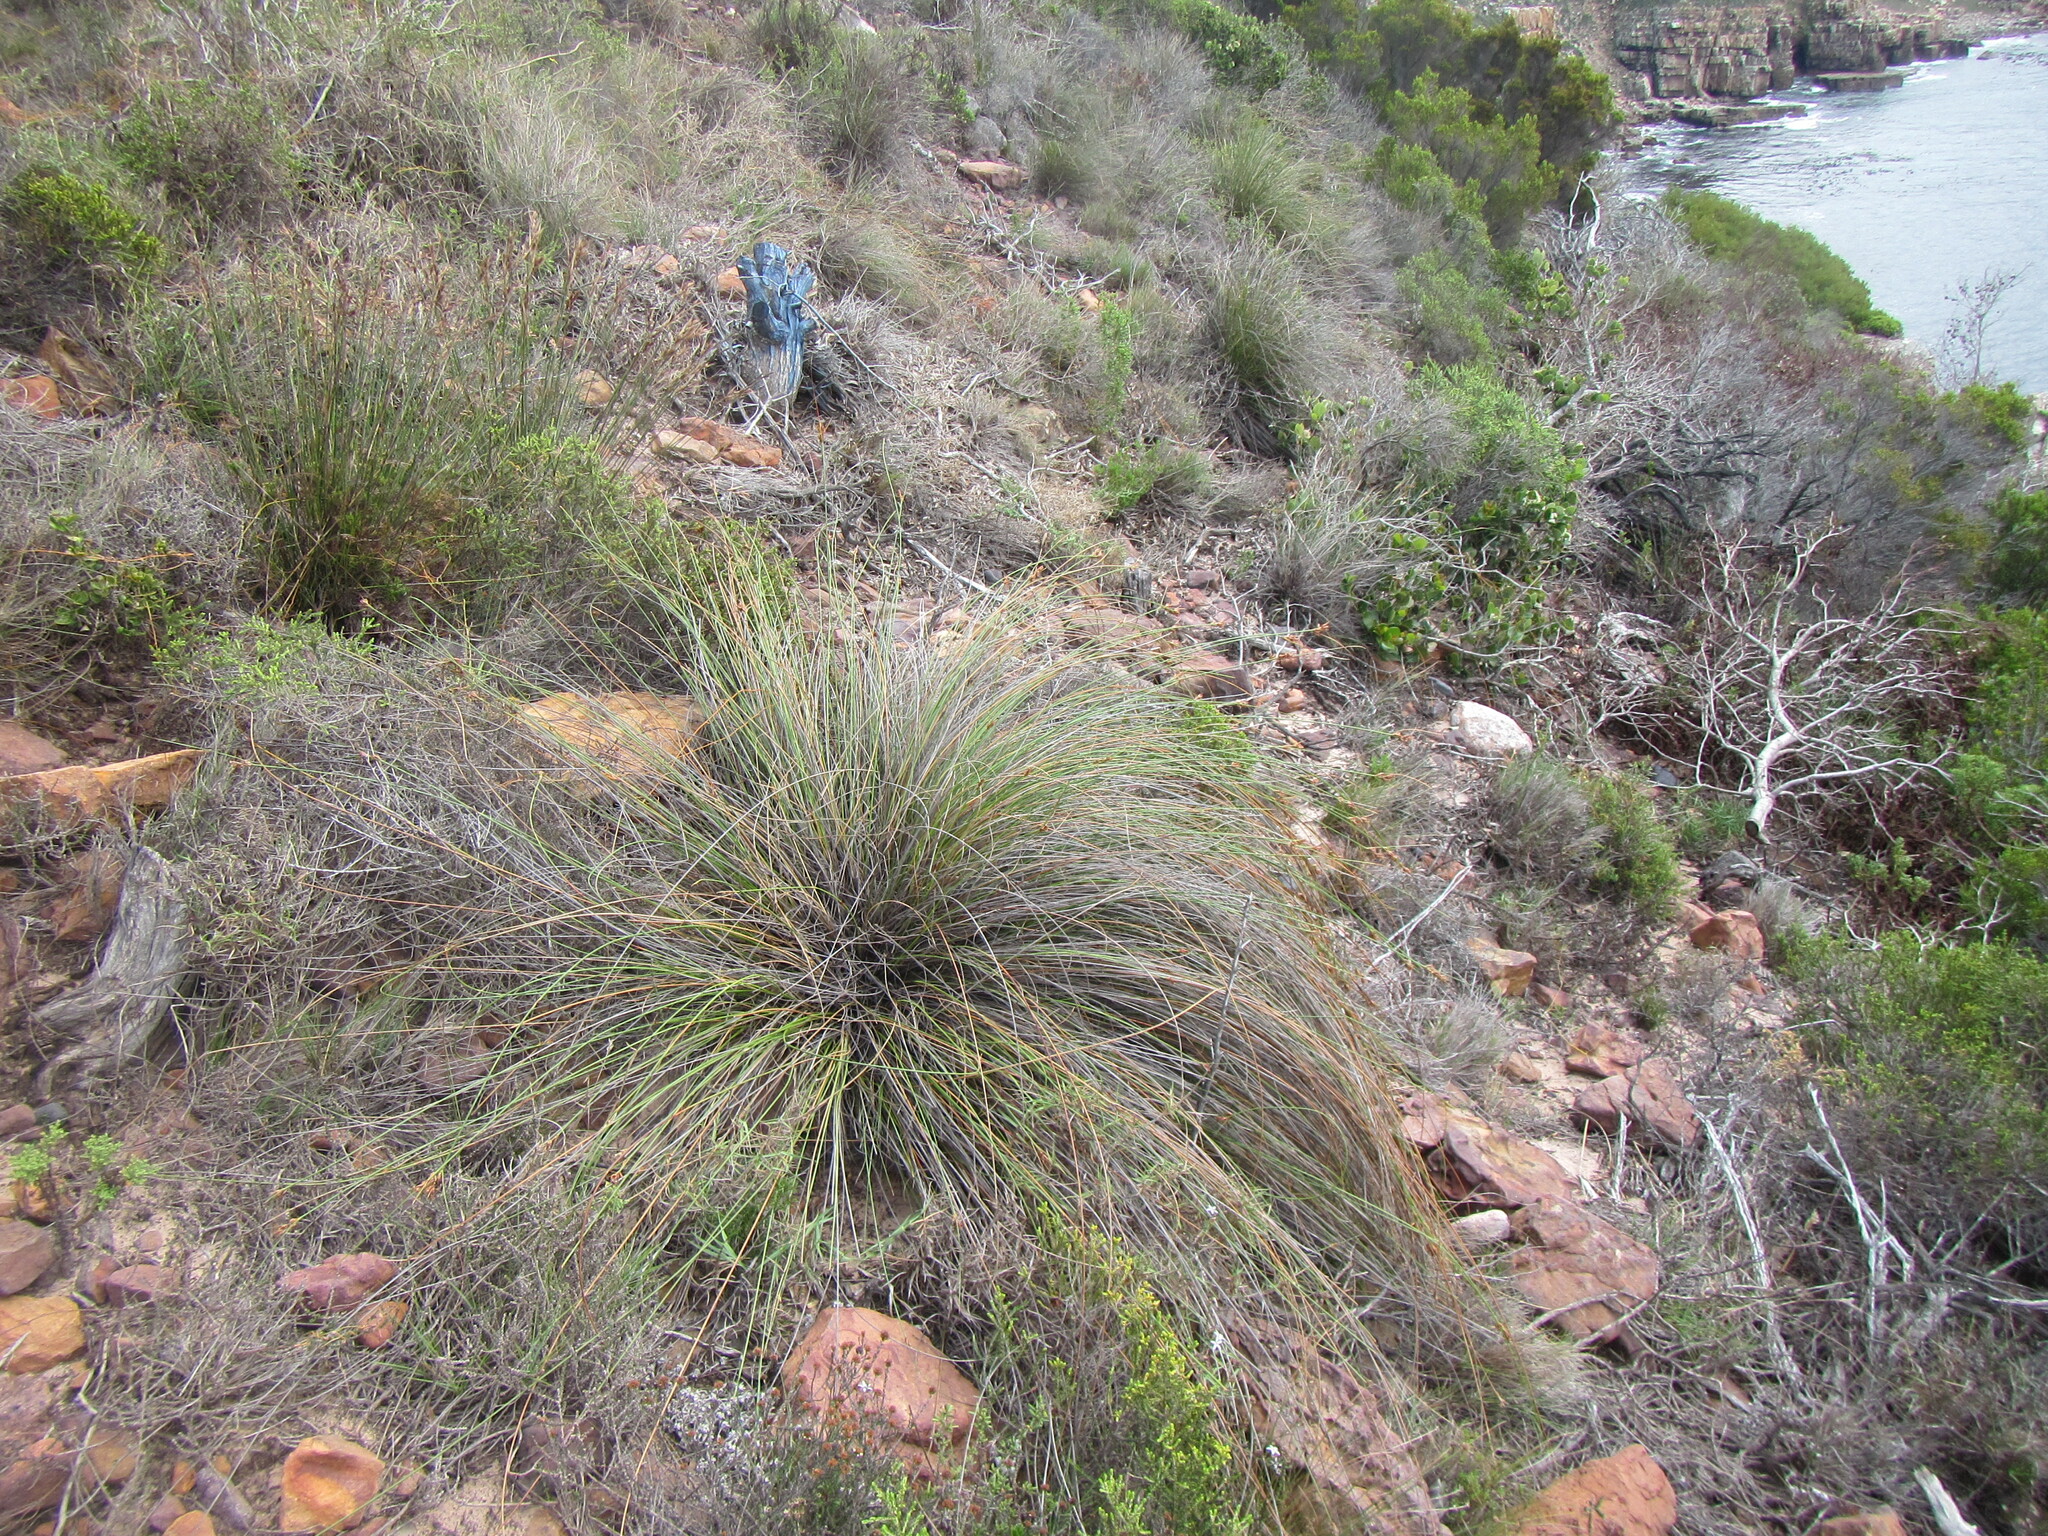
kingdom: Plantae
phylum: Tracheophyta
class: Liliopsida
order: Poales
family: Cyperaceae
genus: Schoenus
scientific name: Schoenus compar
